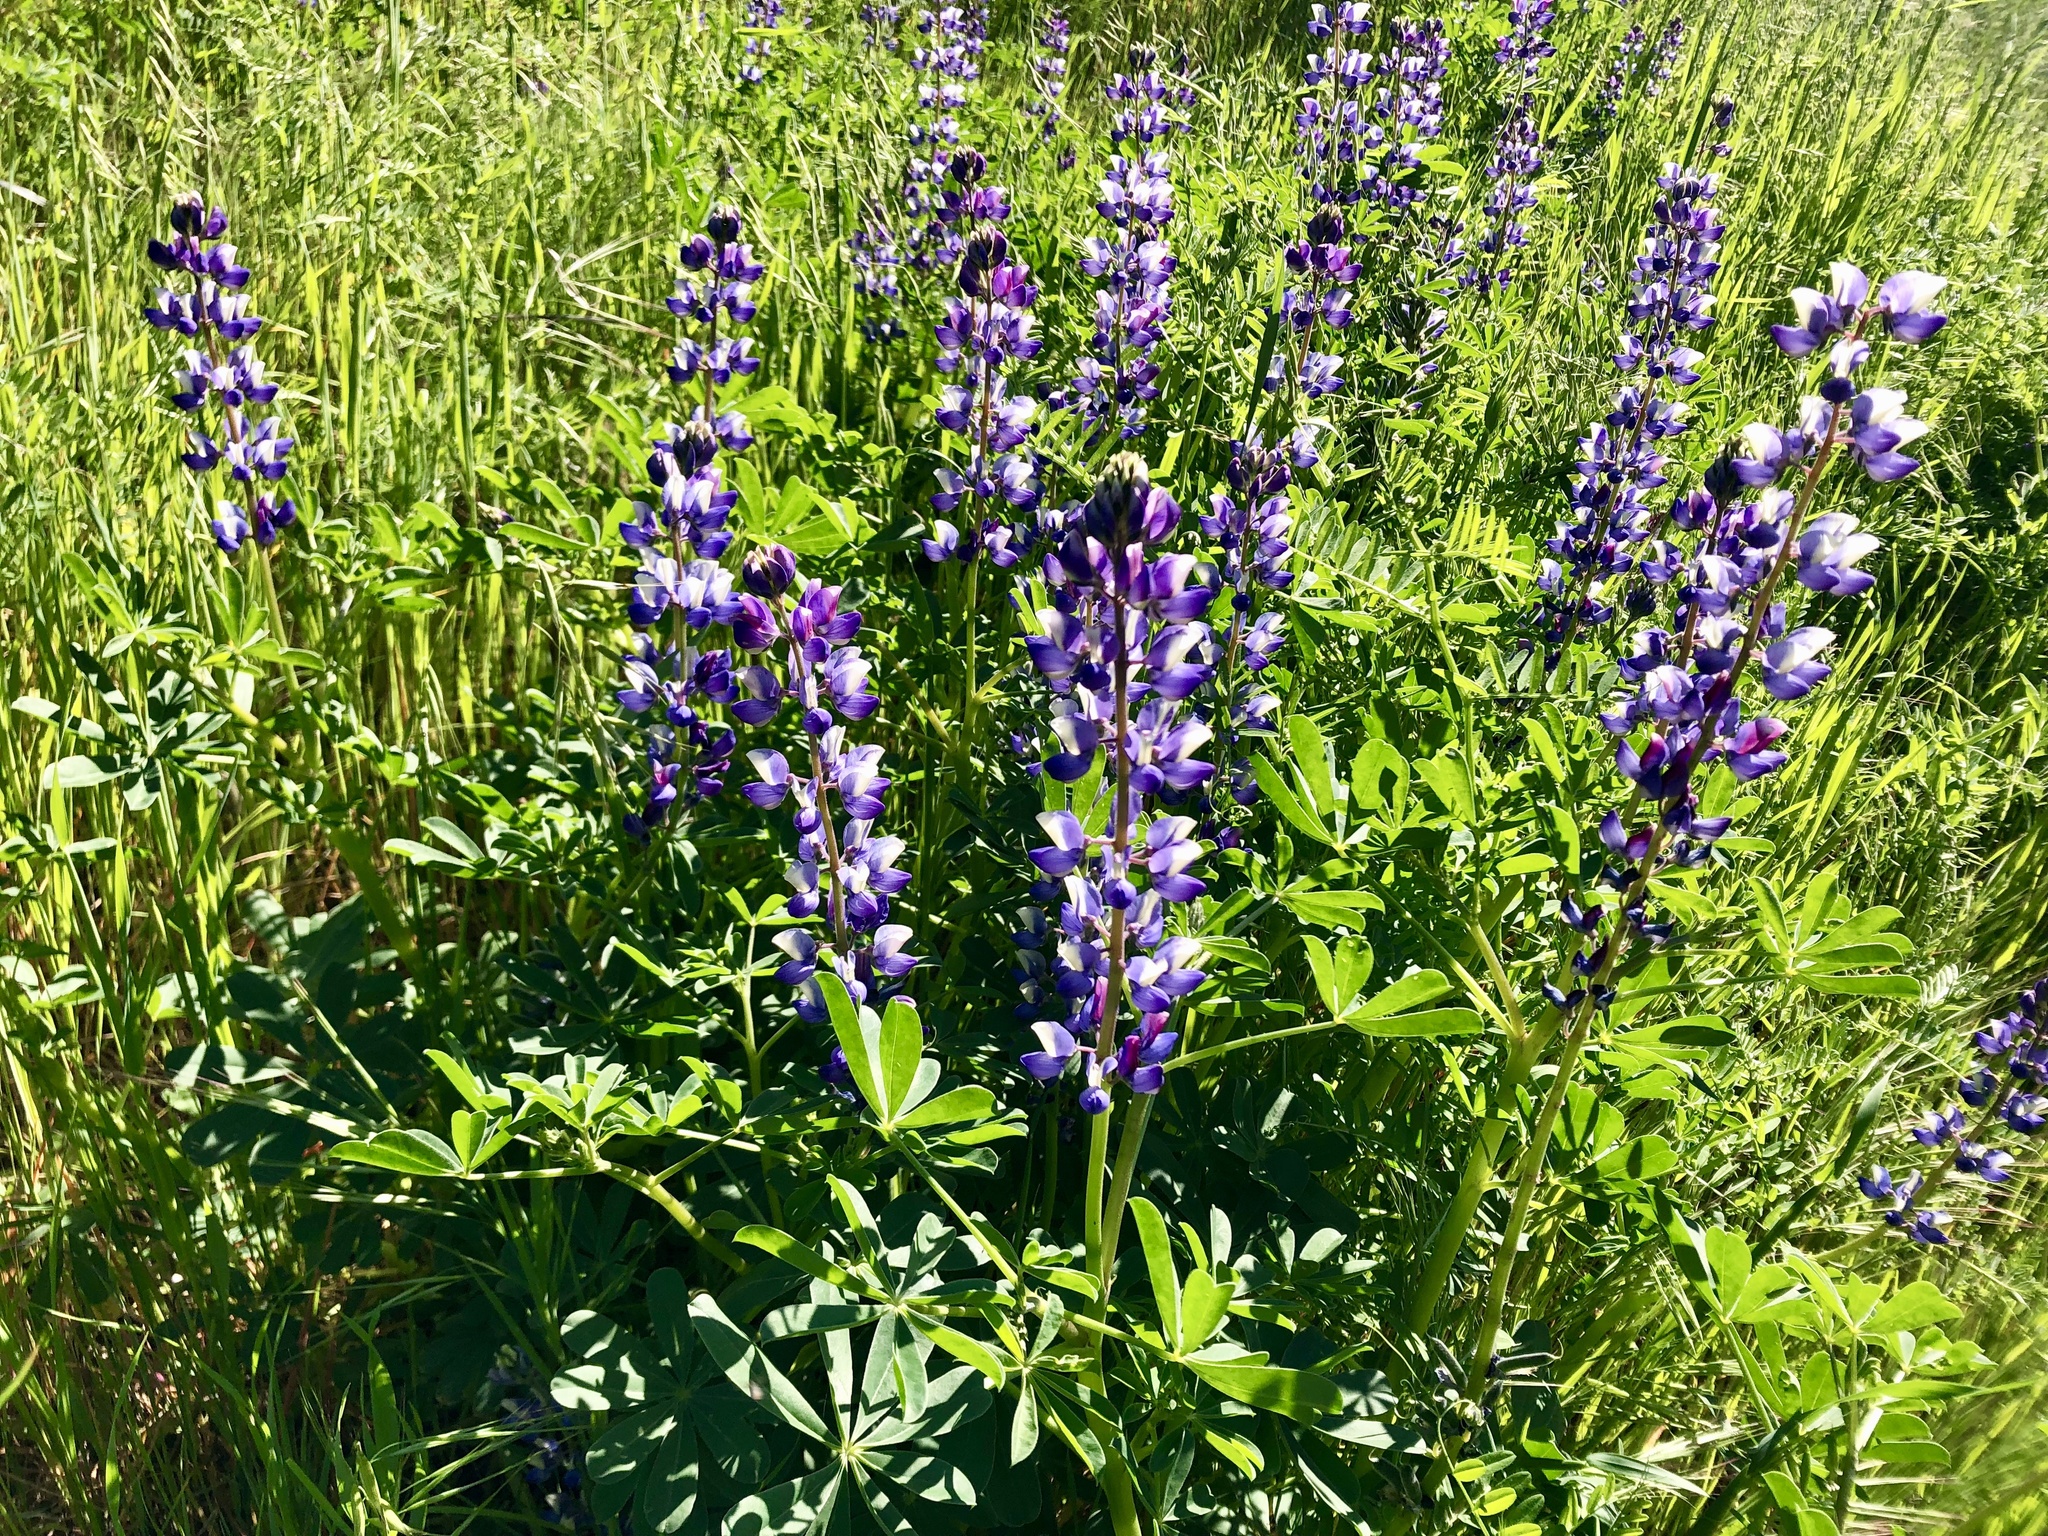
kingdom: Plantae
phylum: Tracheophyta
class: Magnoliopsida
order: Fabales
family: Fabaceae
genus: Lupinus
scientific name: Lupinus succulentus
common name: Arroyo lupine
